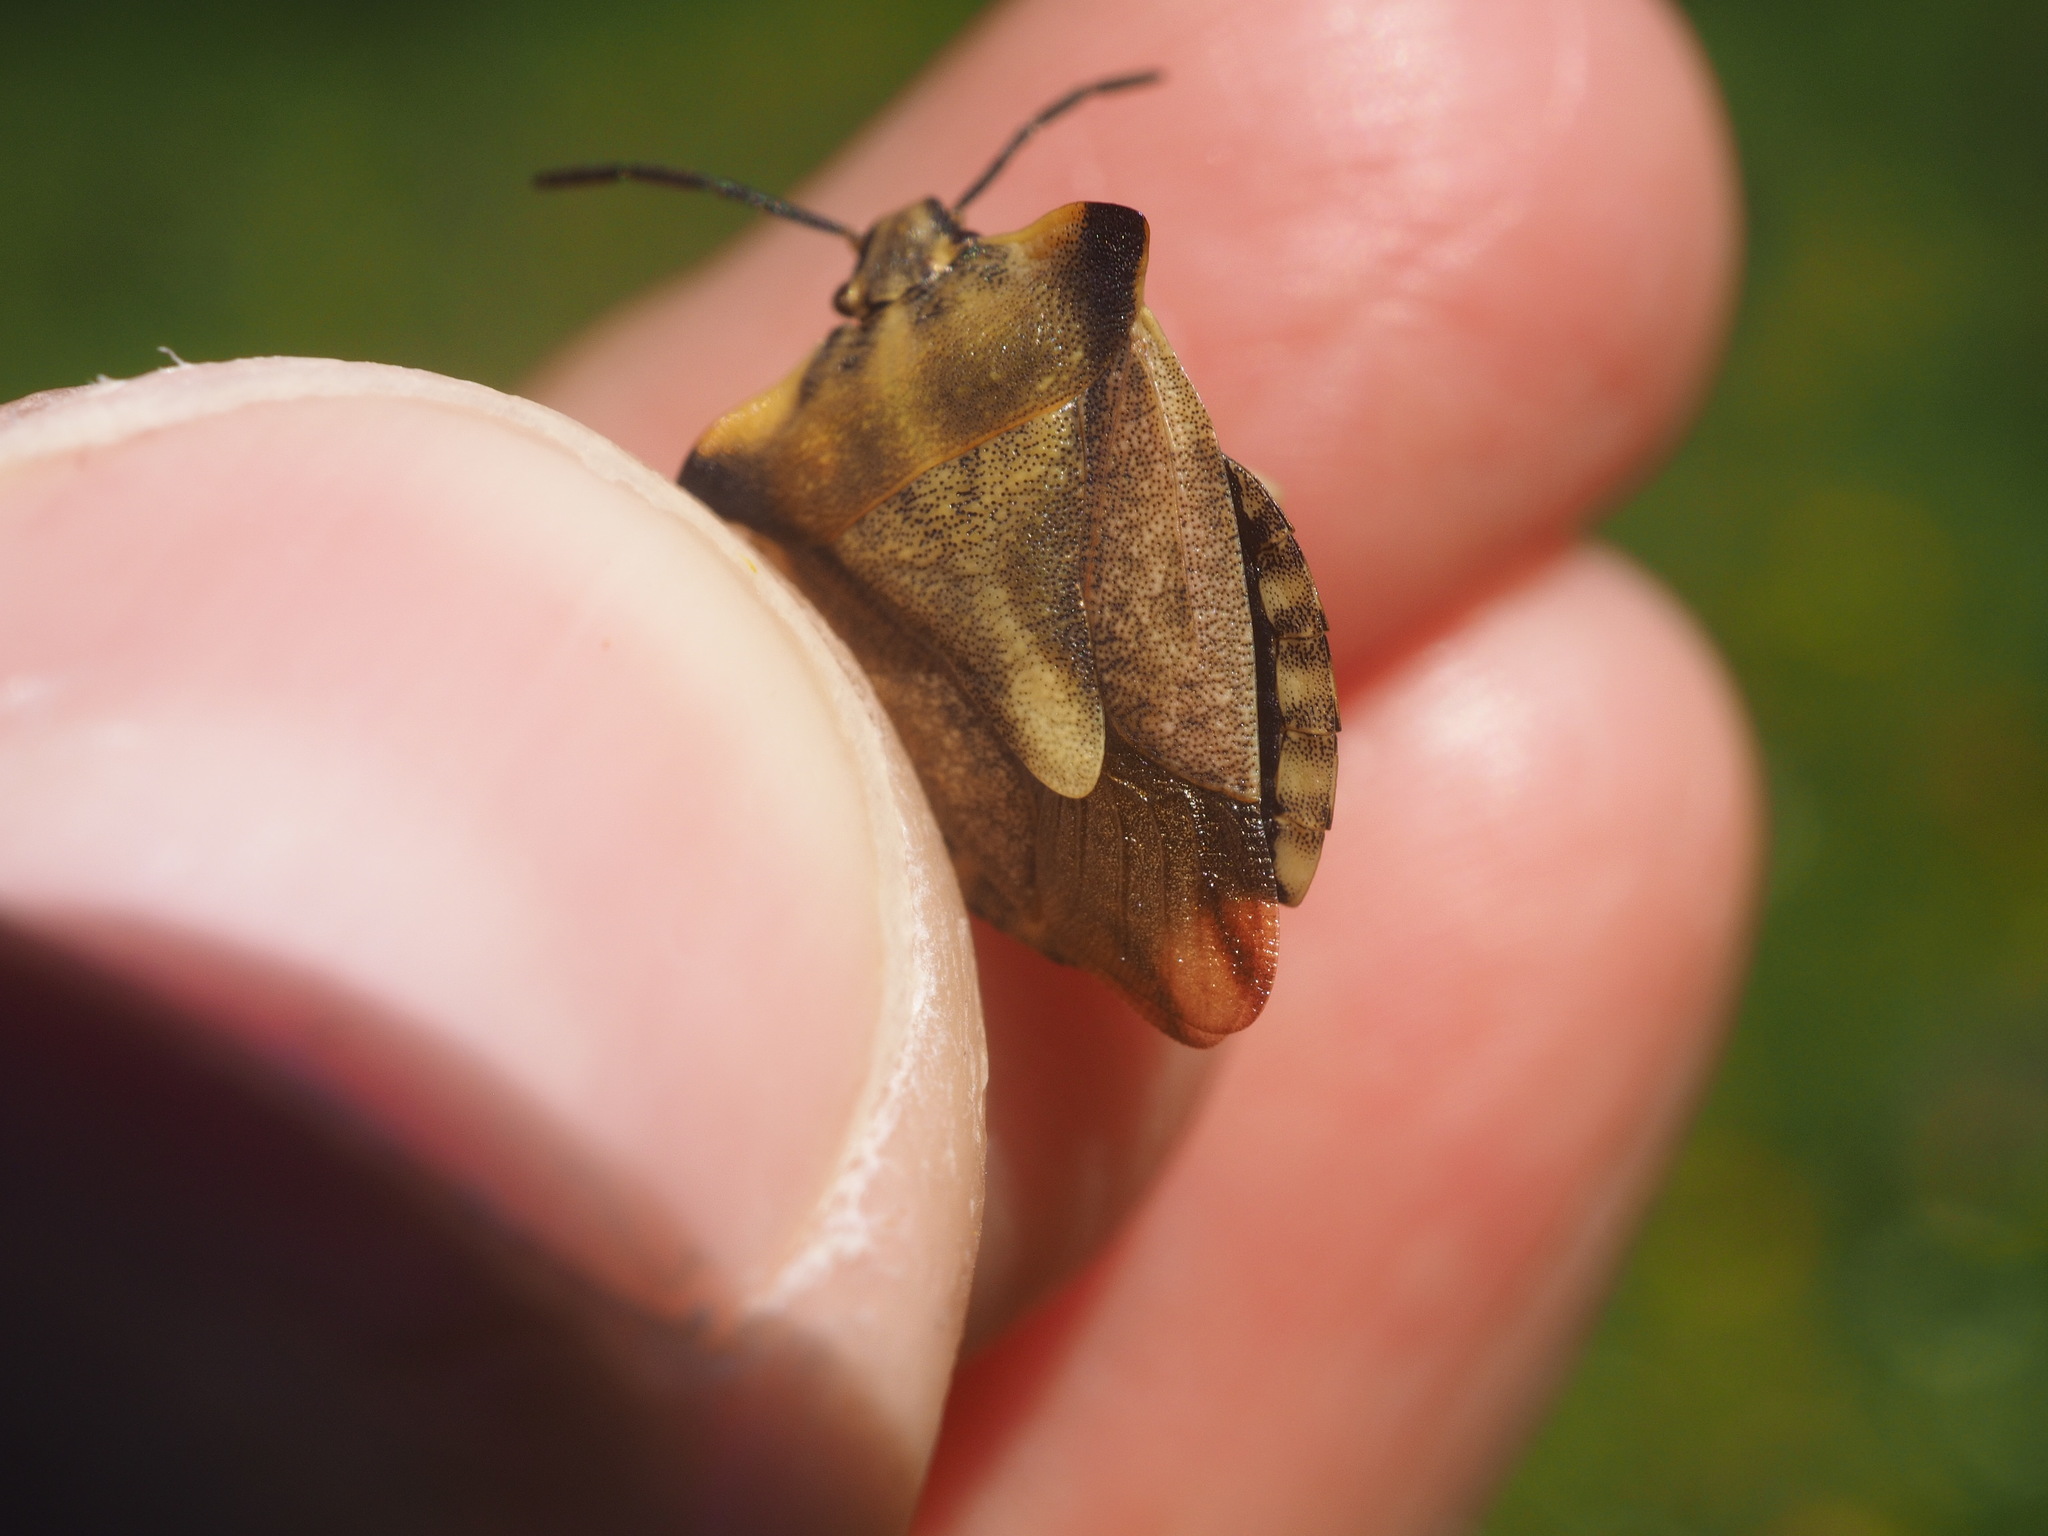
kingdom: Animalia
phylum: Arthropoda
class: Insecta
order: Hemiptera
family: Pentatomidae
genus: Carpocoris
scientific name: Carpocoris fuscispinus
